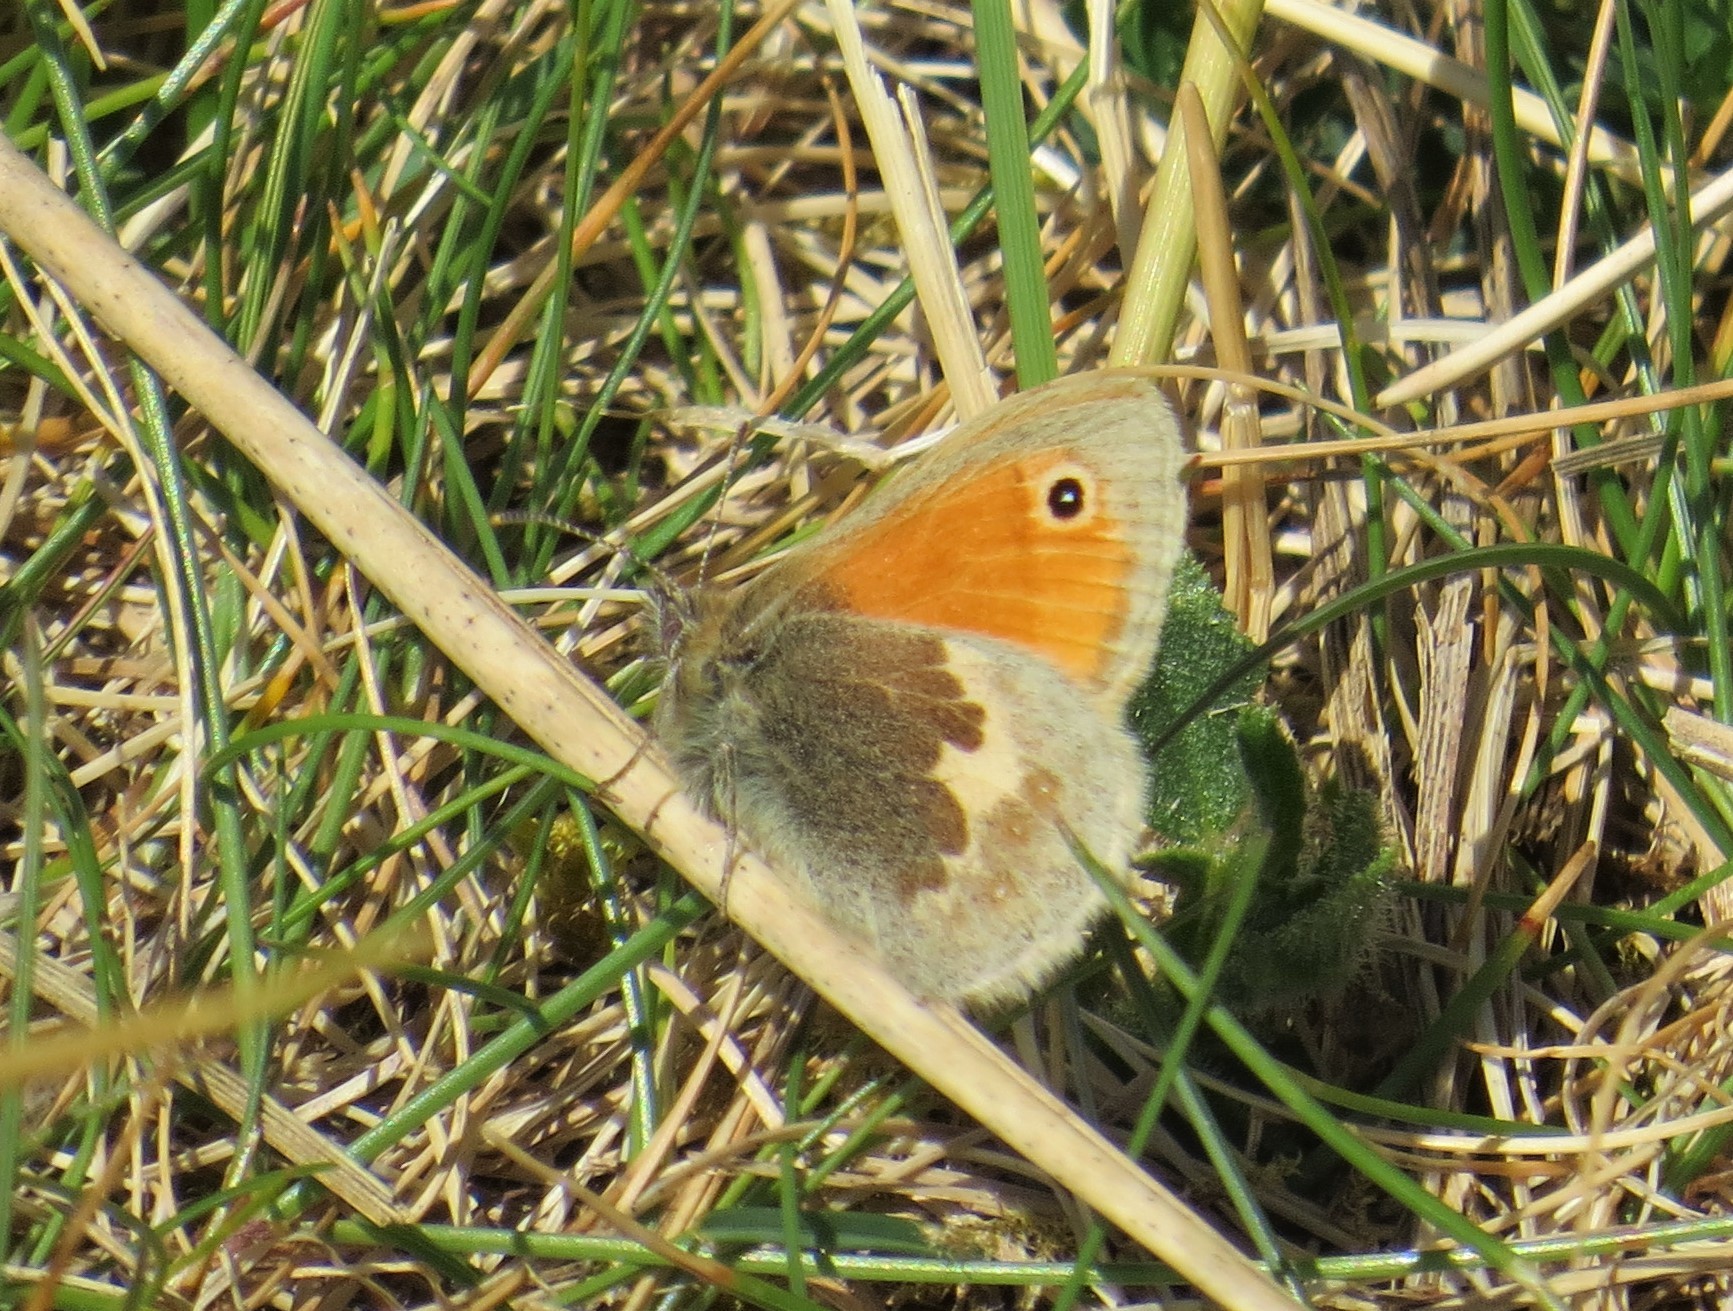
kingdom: Animalia
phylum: Arthropoda
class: Insecta
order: Lepidoptera
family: Nymphalidae
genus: Coenonympha
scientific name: Coenonympha pamphilus
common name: Small heath
